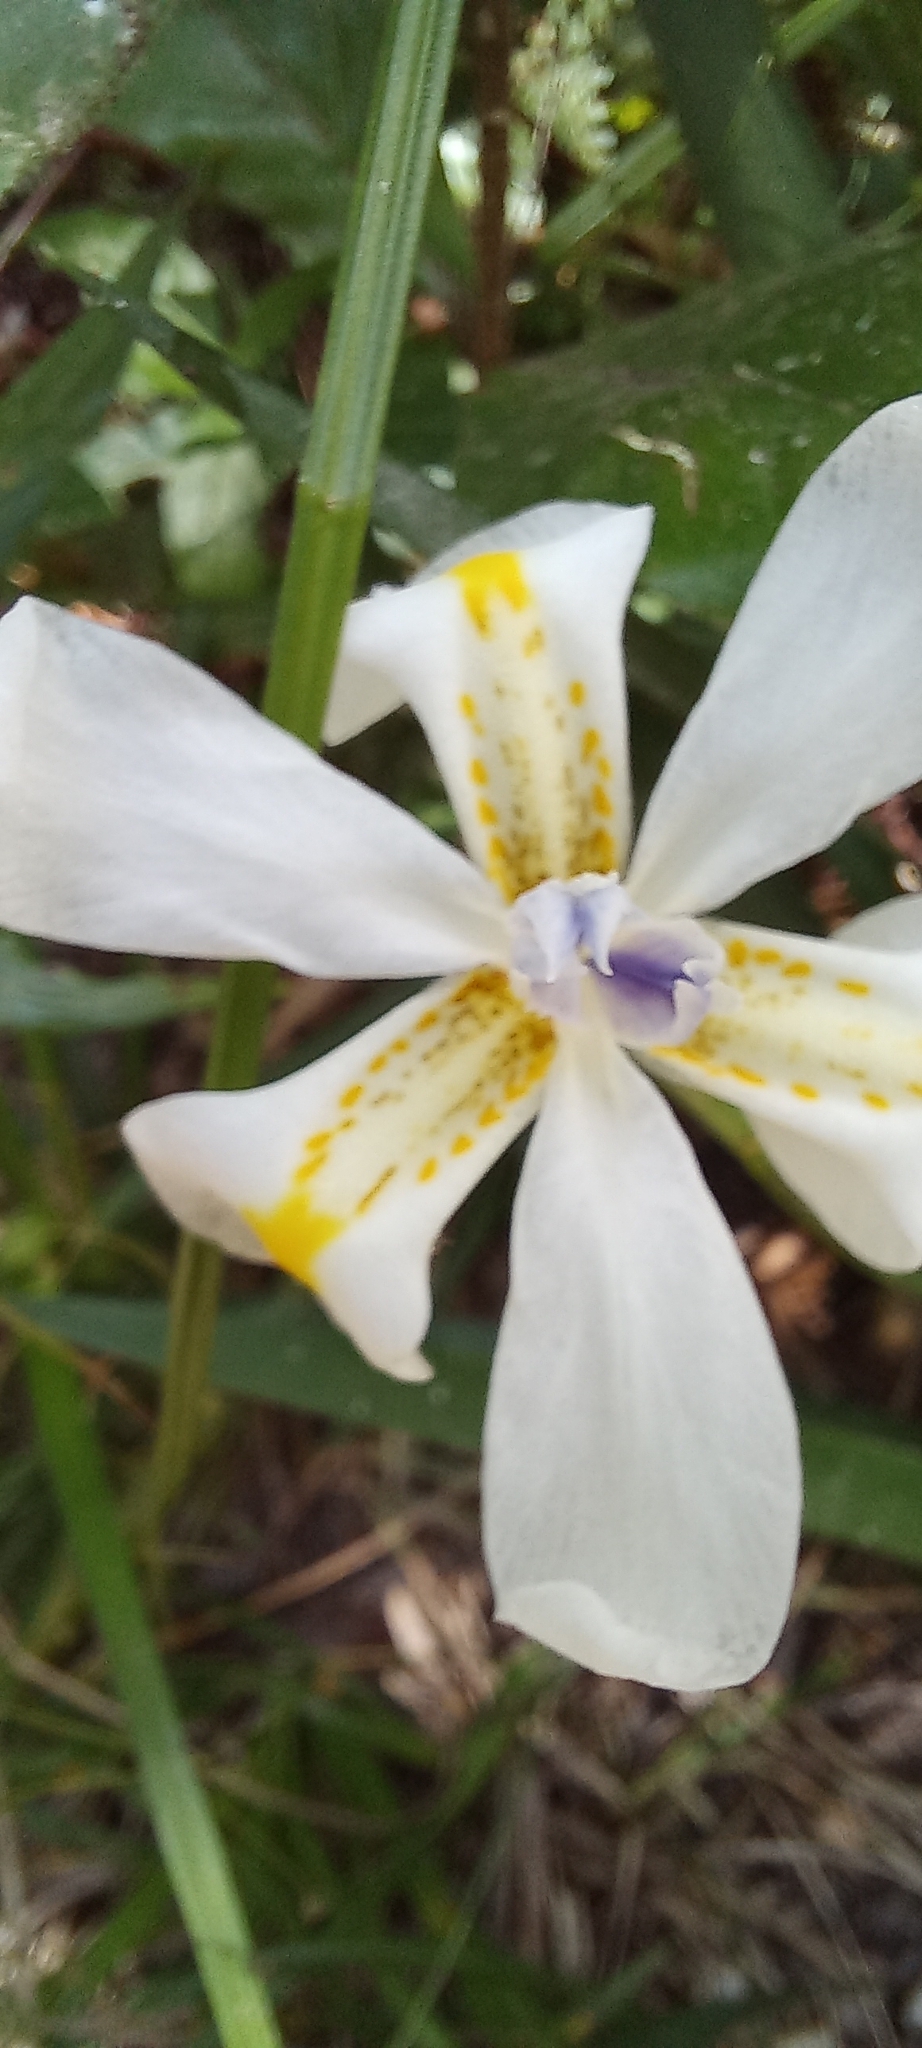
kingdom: Plantae
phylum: Tracheophyta
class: Liliopsida
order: Asparagales
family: Iridaceae
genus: Dietes
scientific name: Dietes iridioides
